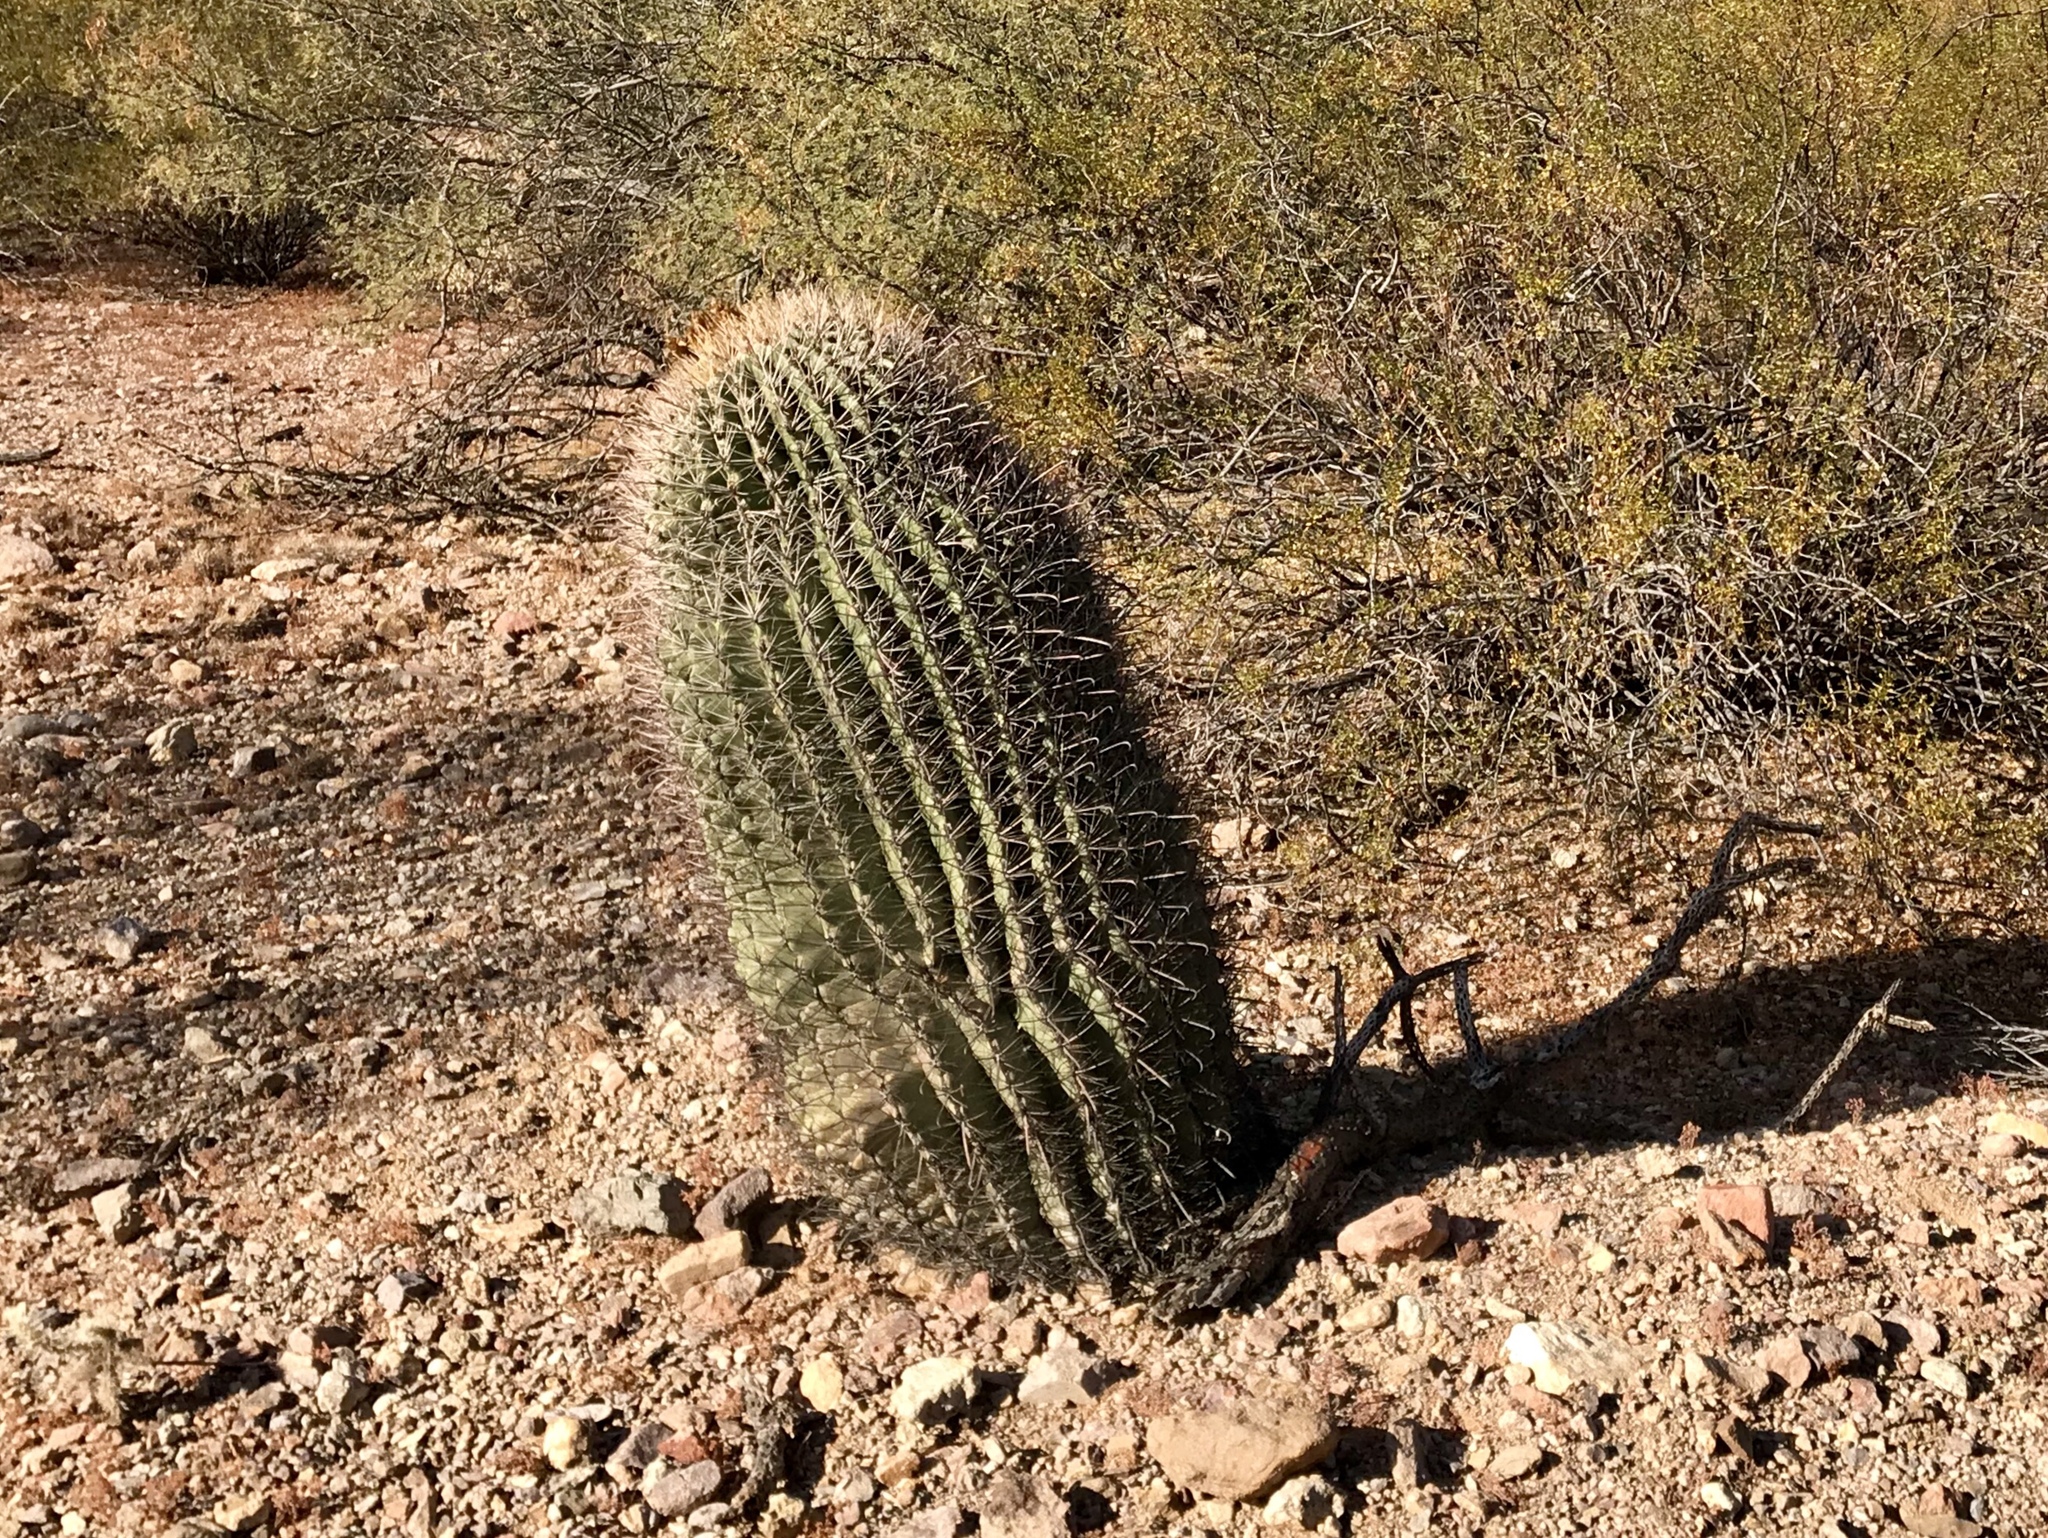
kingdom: Plantae
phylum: Tracheophyta
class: Magnoliopsida
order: Caryophyllales
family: Cactaceae
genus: Ferocactus
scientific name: Ferocactus wislizeni
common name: Candy barrel cactus
